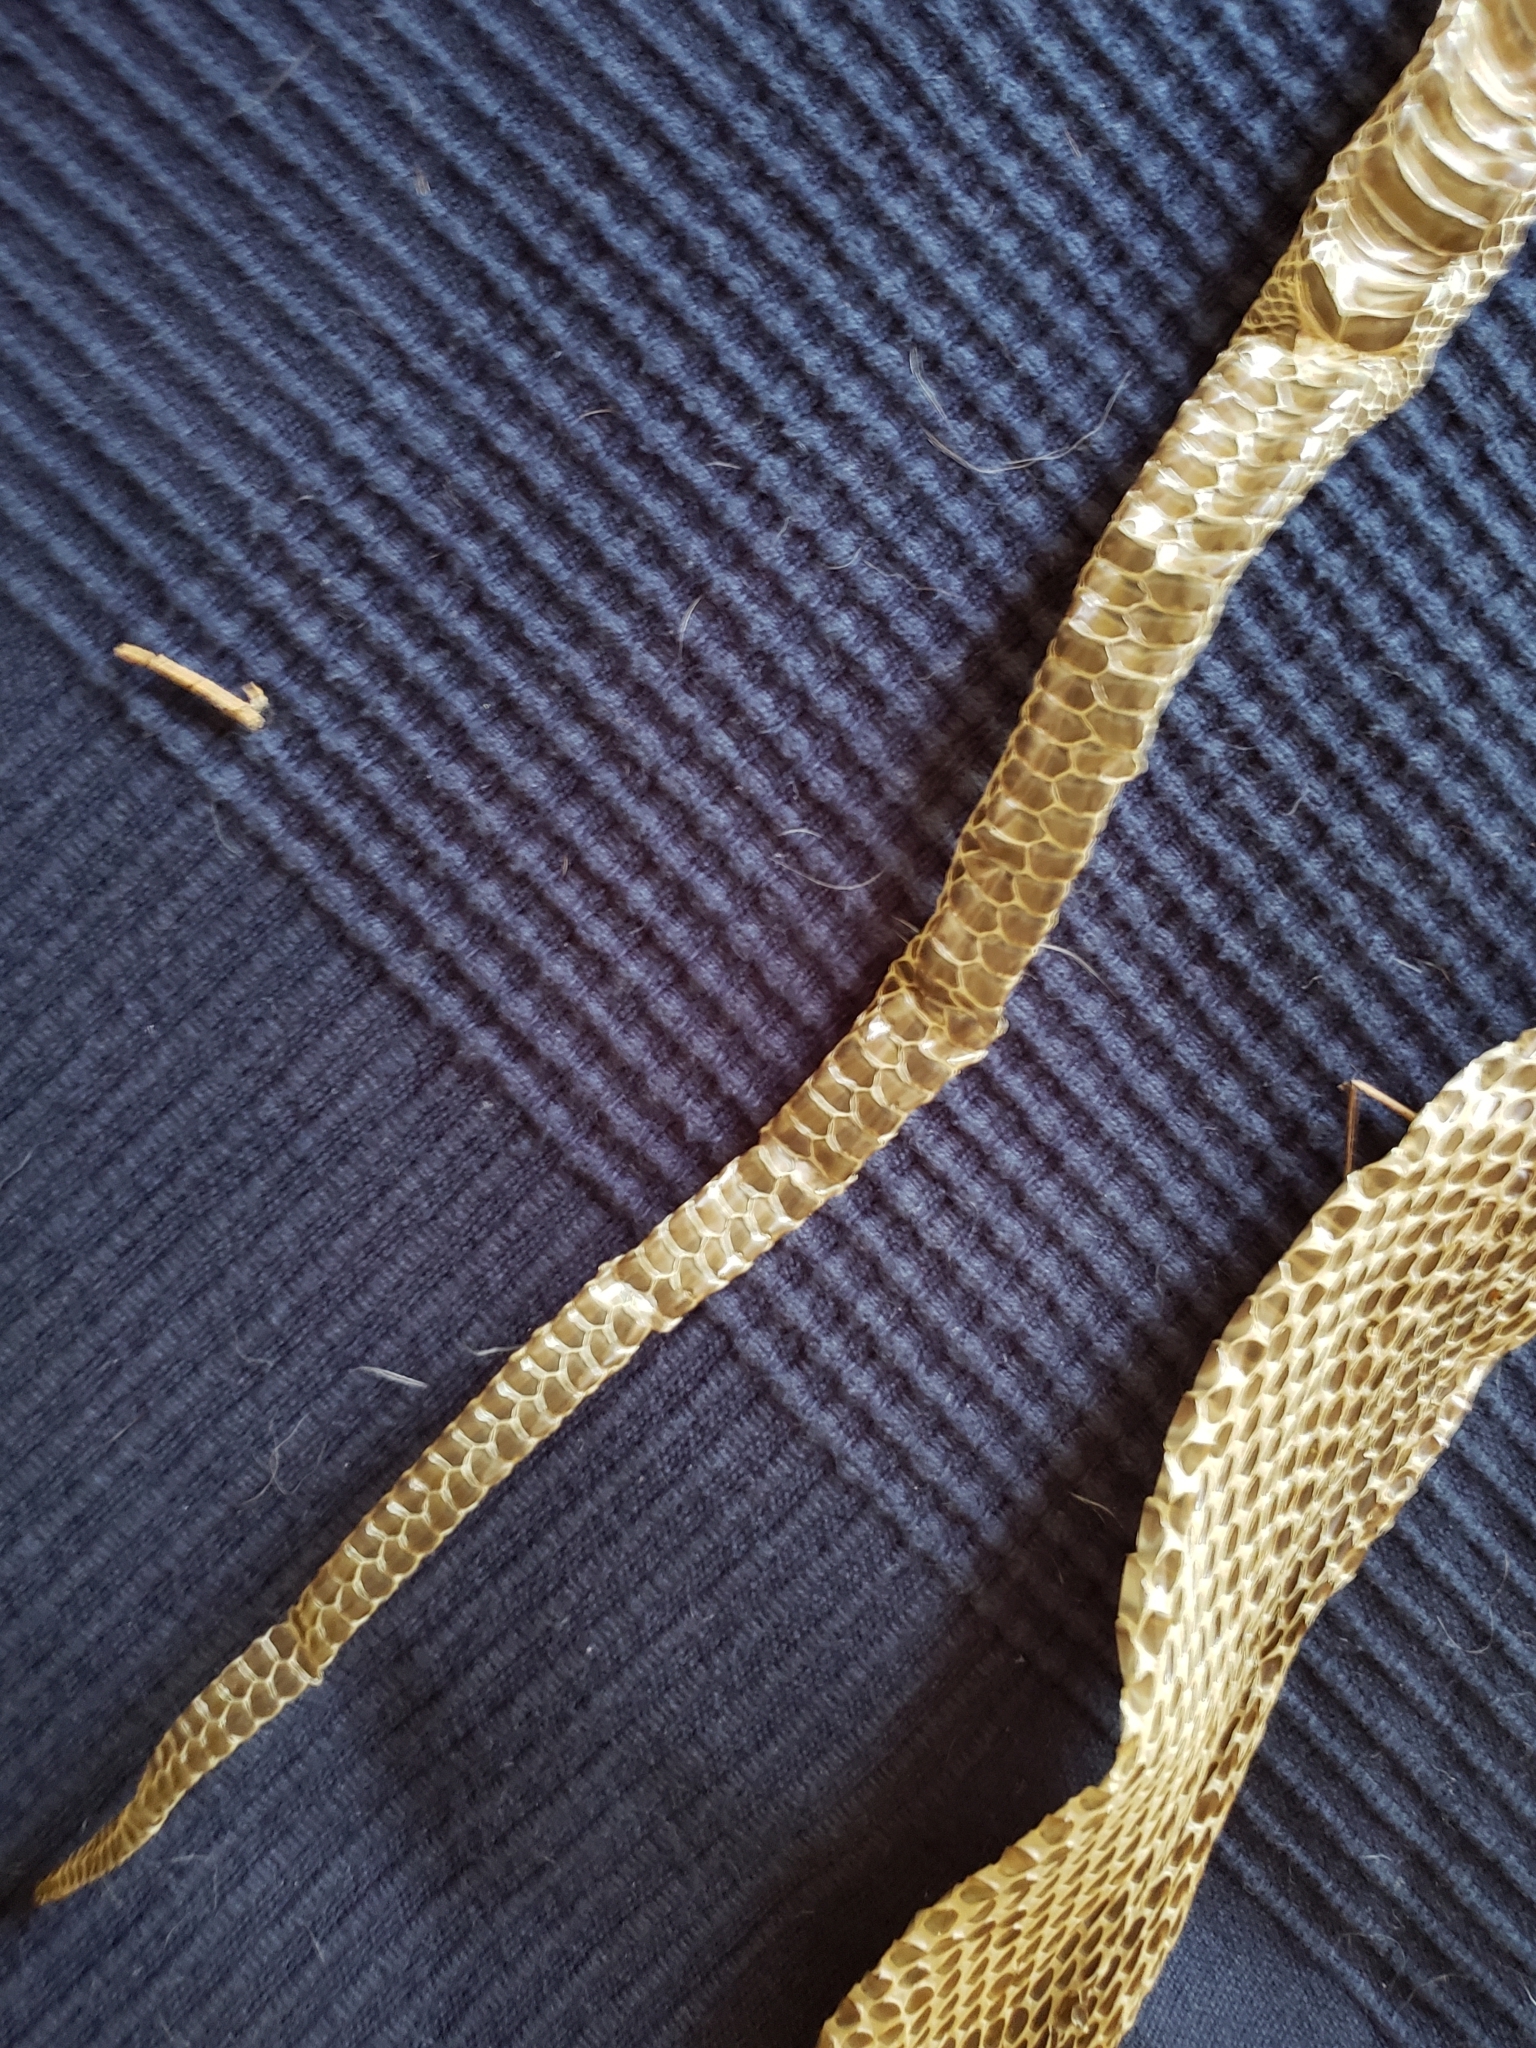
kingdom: Animalia
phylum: Chordata
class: Squamata
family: Colubridae
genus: Pantherophis
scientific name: Pantherophis alleghaniensis
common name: Eastern rat snake
